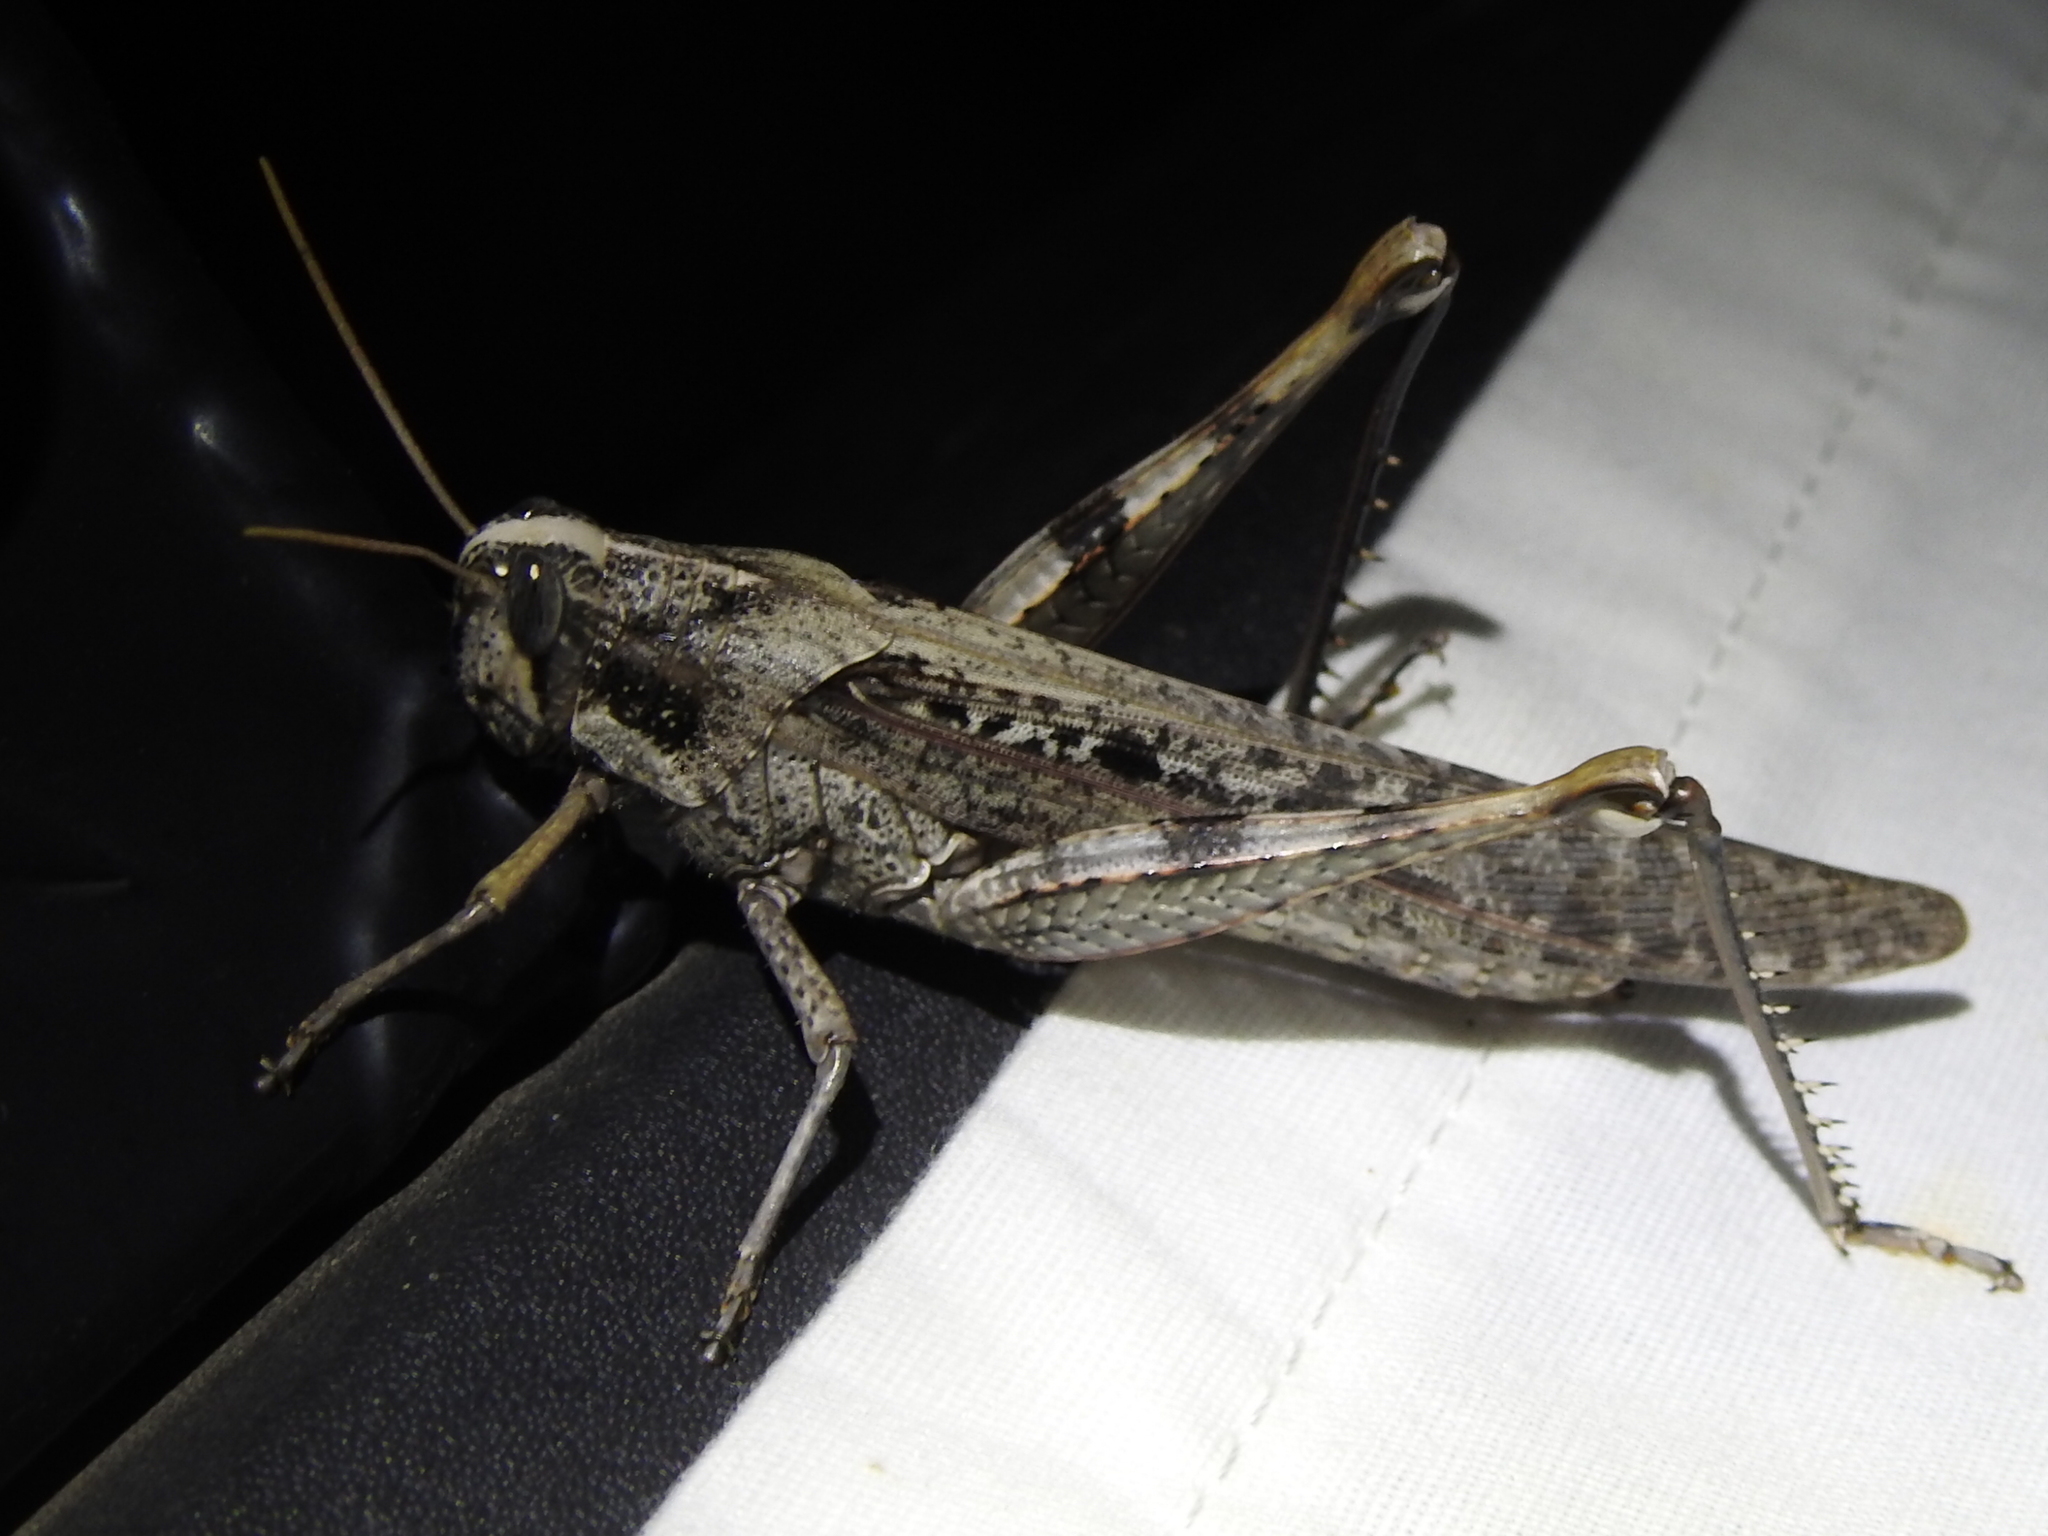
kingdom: Animalia
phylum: Arthropoda
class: Insecta
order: Orthoptera
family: Acrididae
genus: Schistocerca
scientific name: Schistocerca nitens
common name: Vagrant grasshopper
